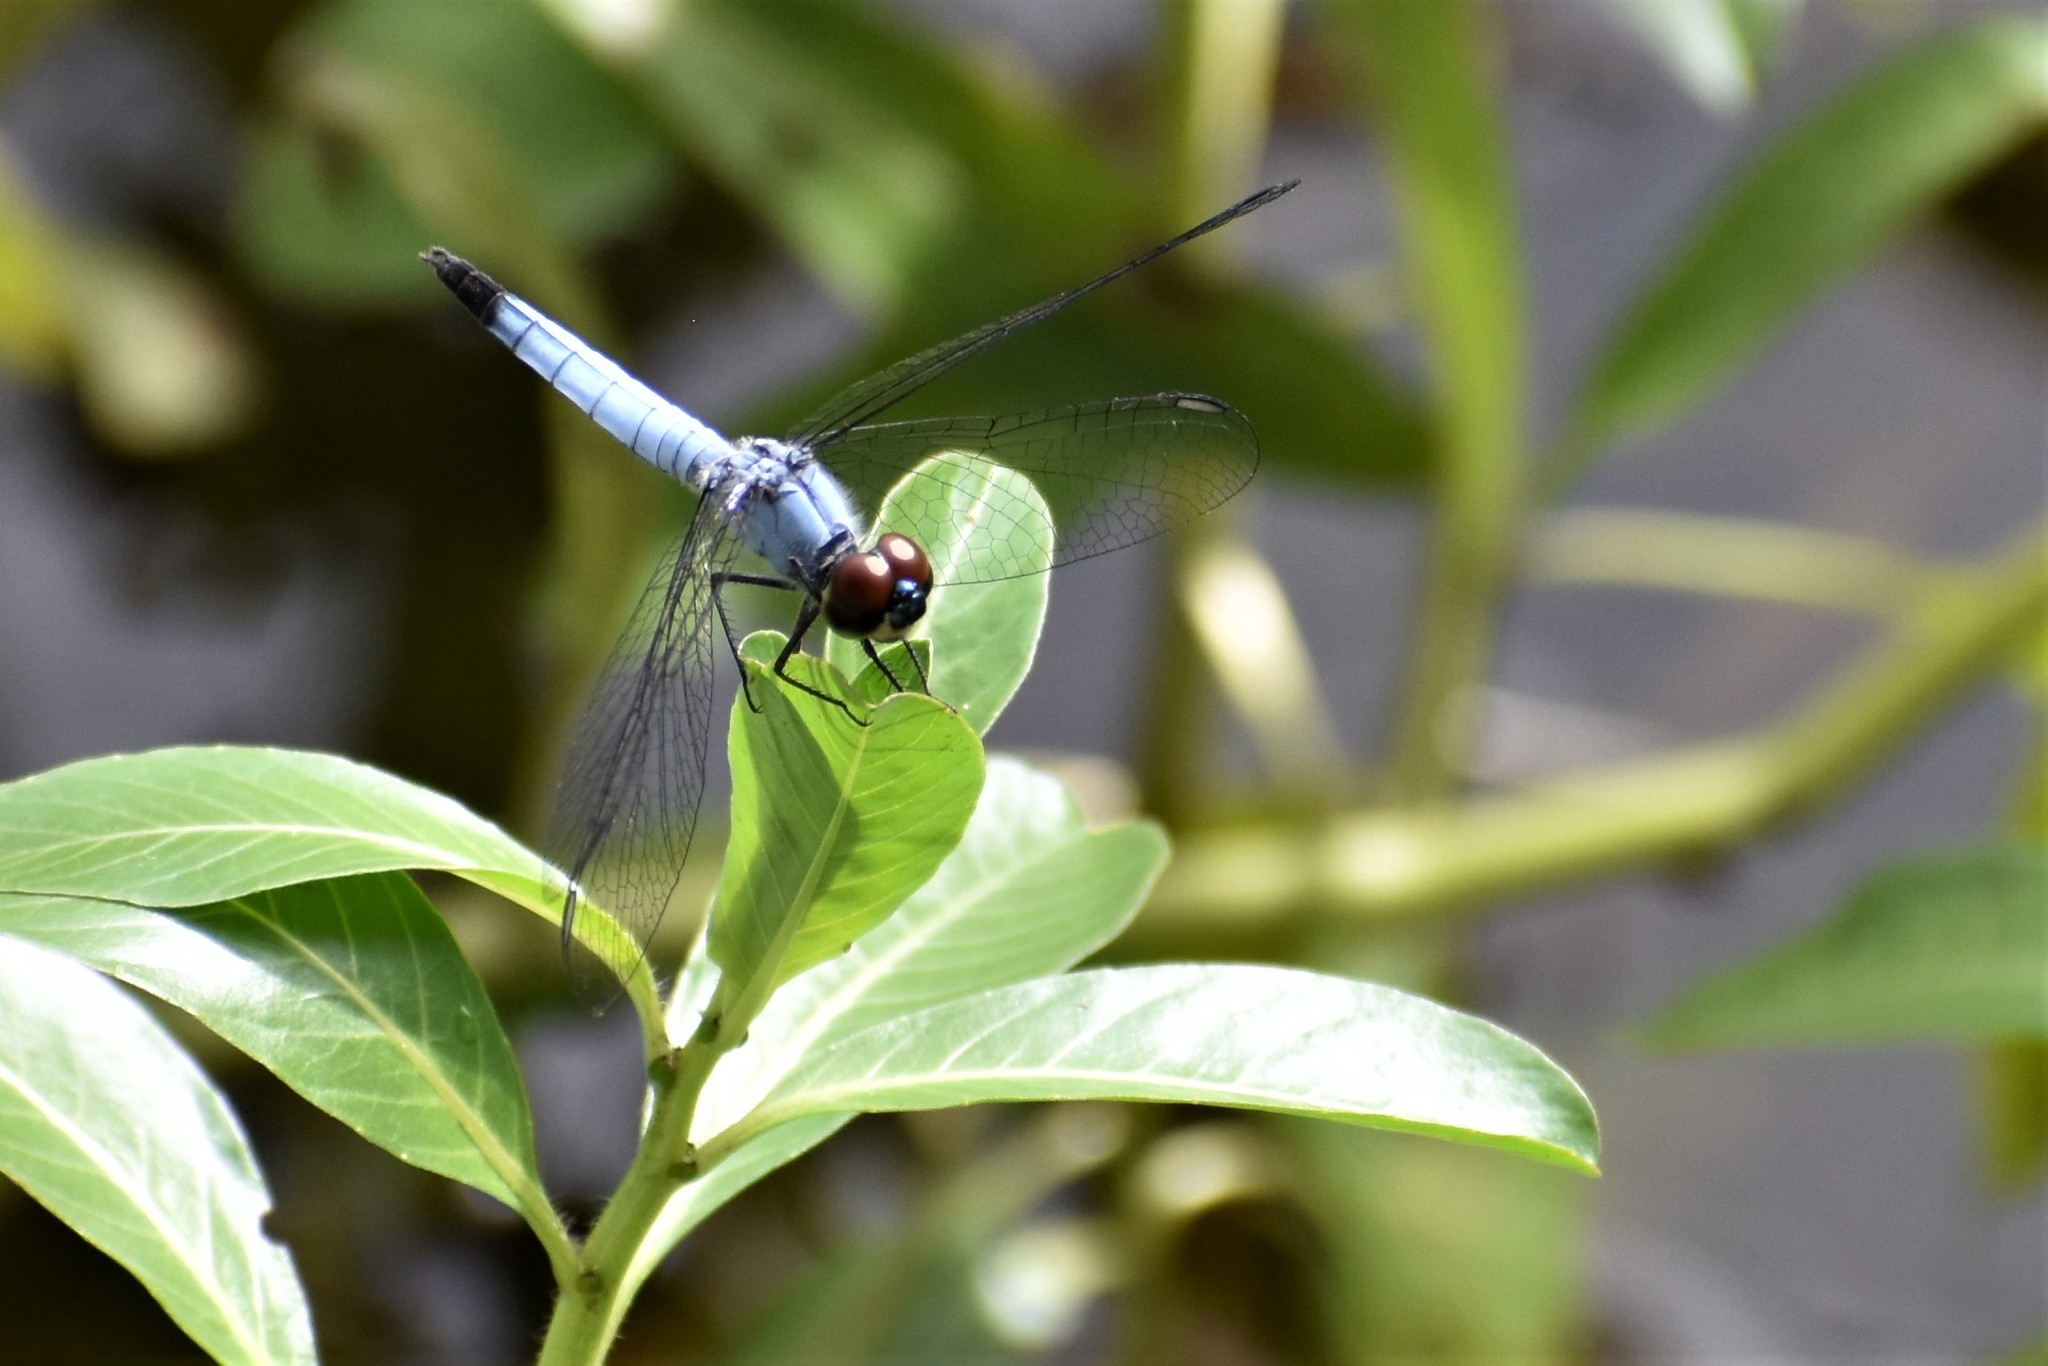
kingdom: Animalia
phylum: Arthropoda
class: Insecta
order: Odonata
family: Libellulidae
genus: Brachydiplax
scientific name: Brachydiplax denticauda
